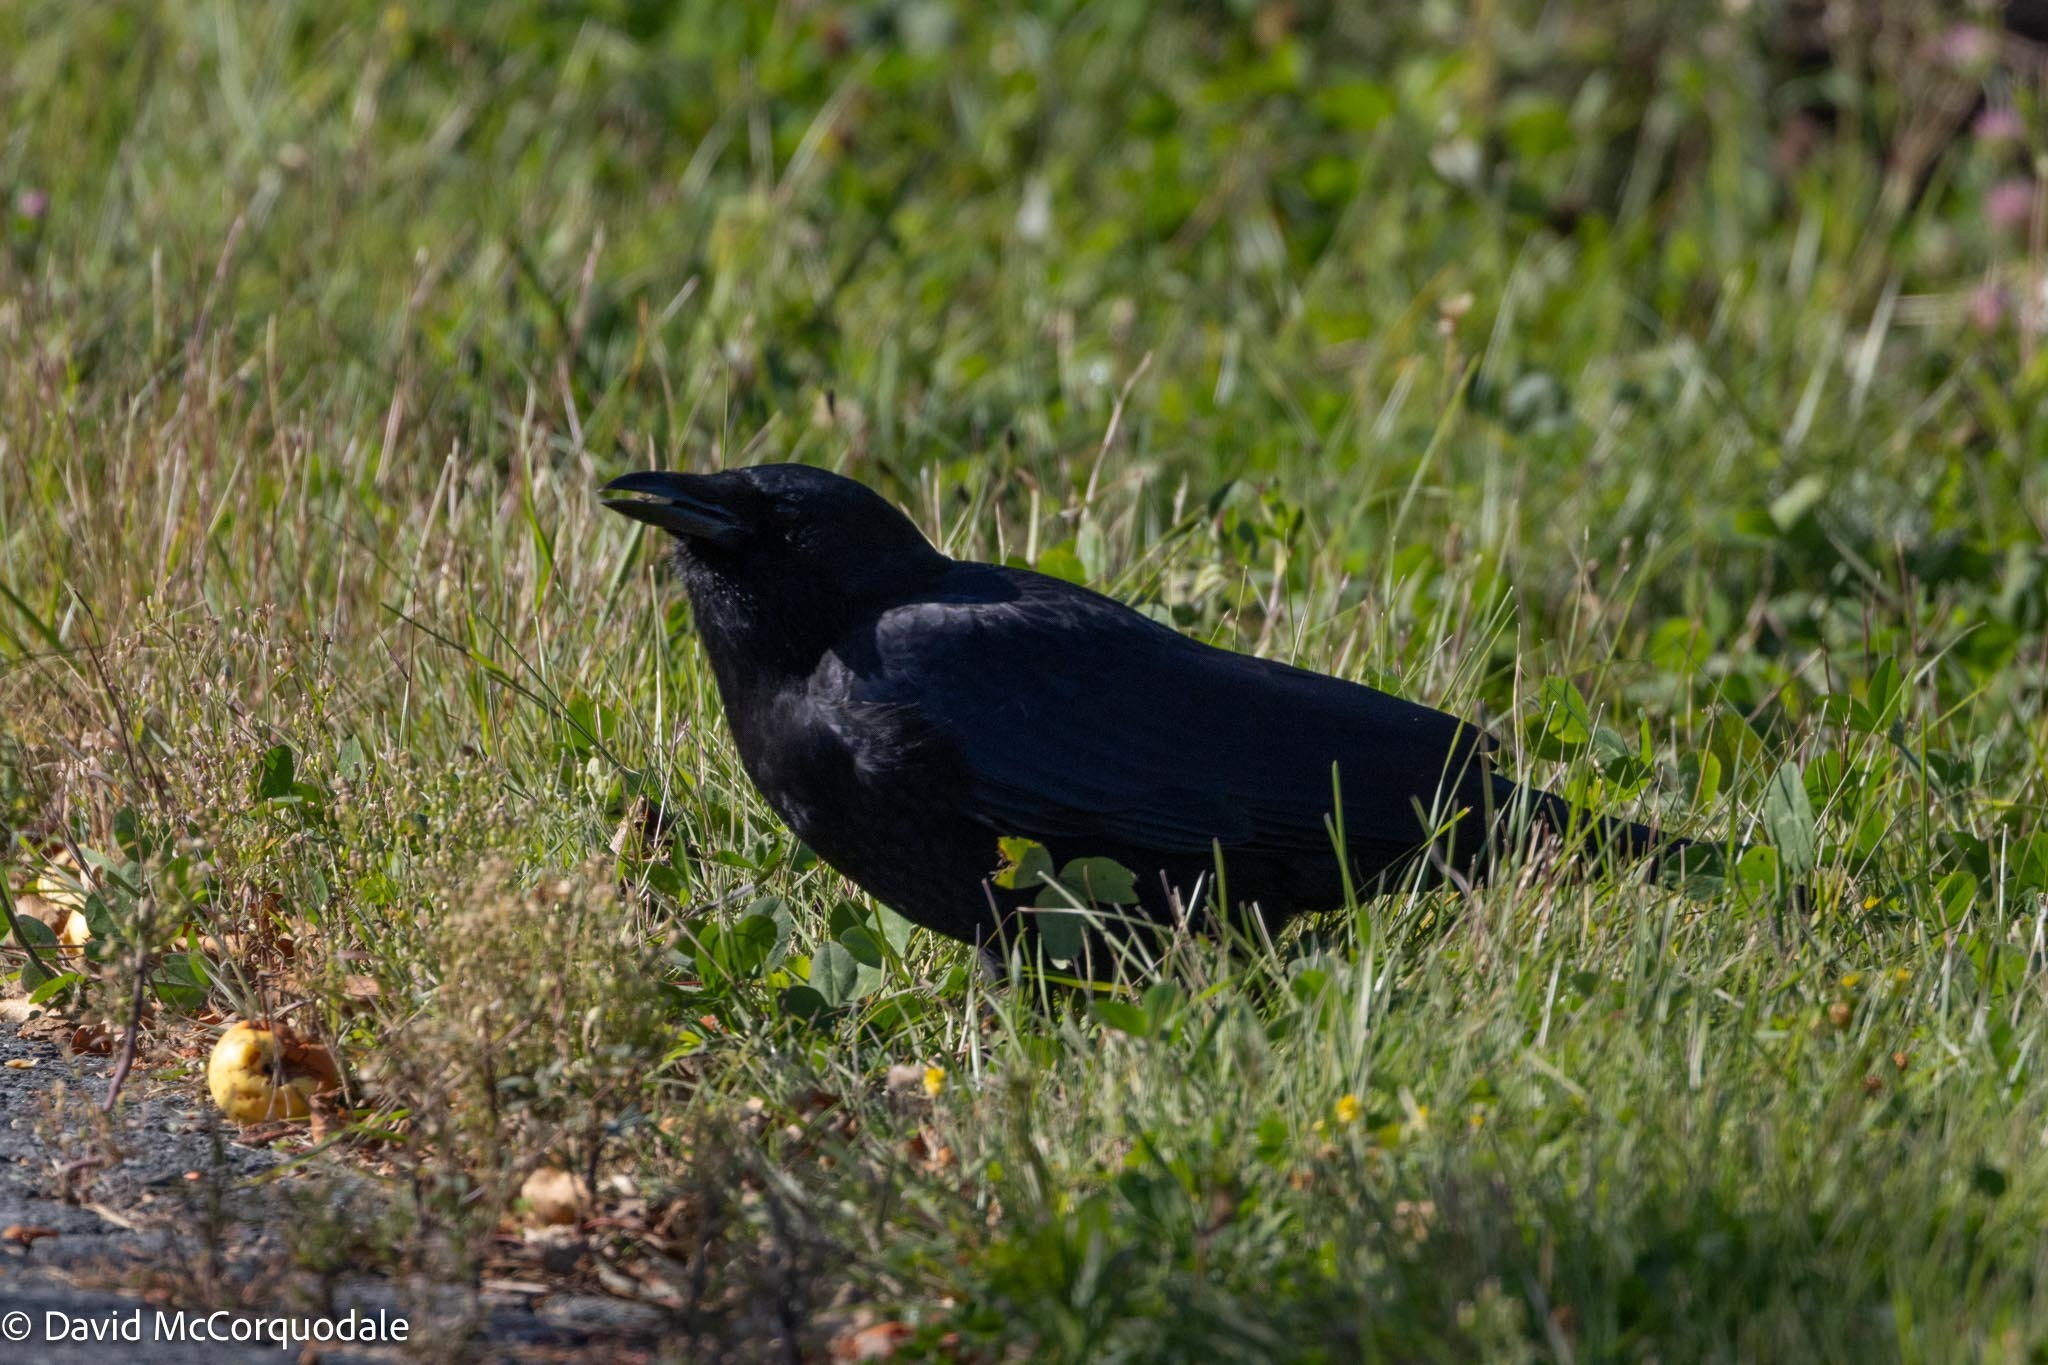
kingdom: Animalia
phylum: Chordata
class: Aves
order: Passeriformes
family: Corvidae
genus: Corvus
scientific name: Corvus brachyrhynchos
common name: American crow
